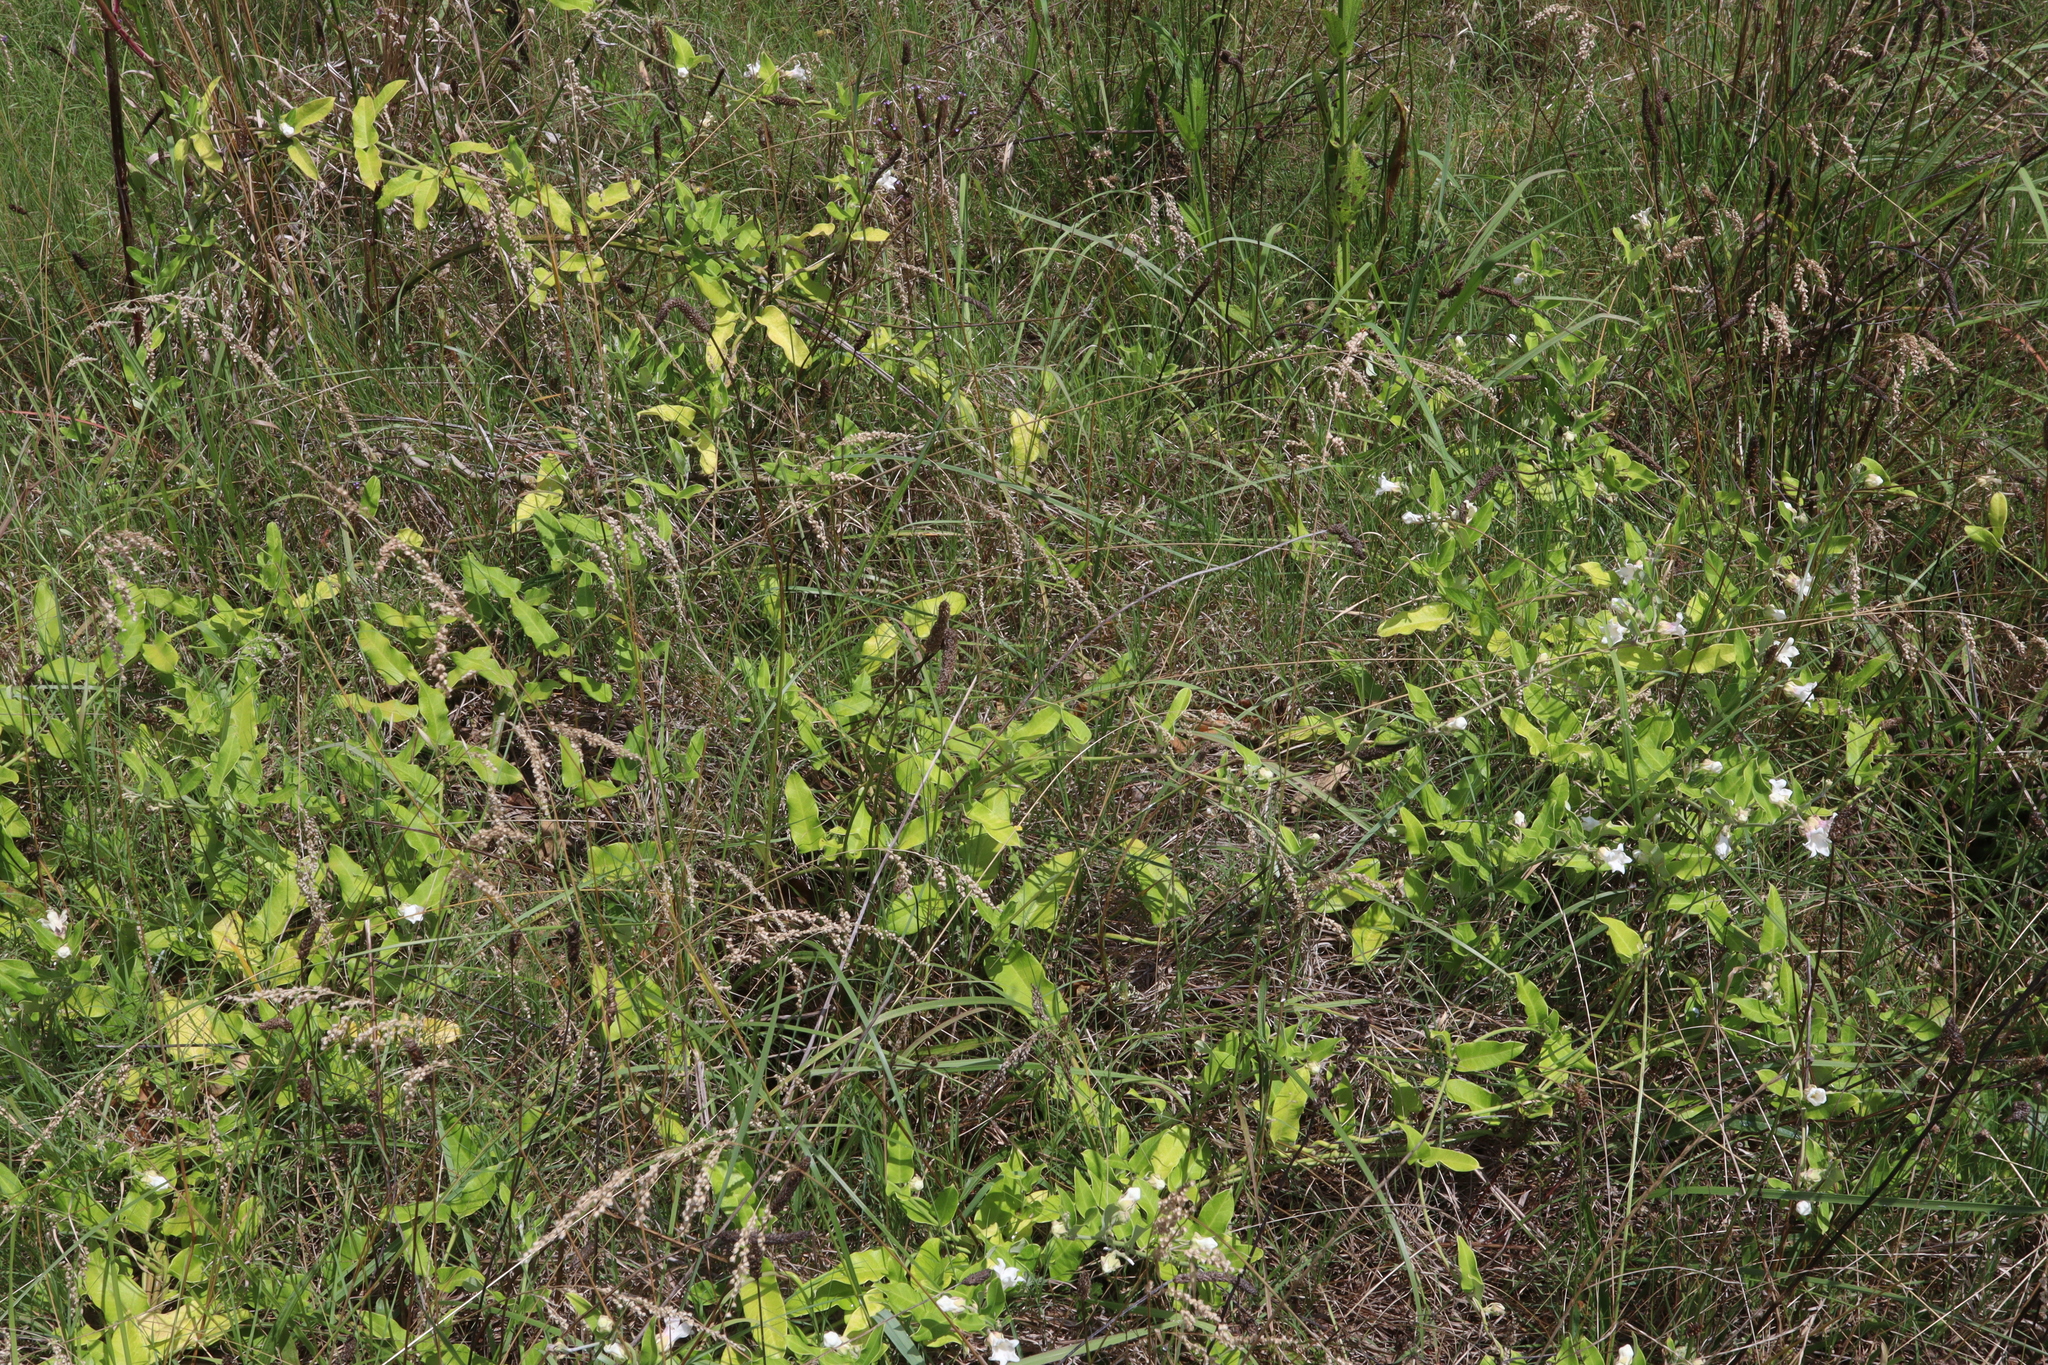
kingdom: Plantae
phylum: Tracheophyta
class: Magnoliopsida
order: Gentianales
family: Apocynaceae
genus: Araujia
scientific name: Araujia sericifera
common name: White bladderflower
